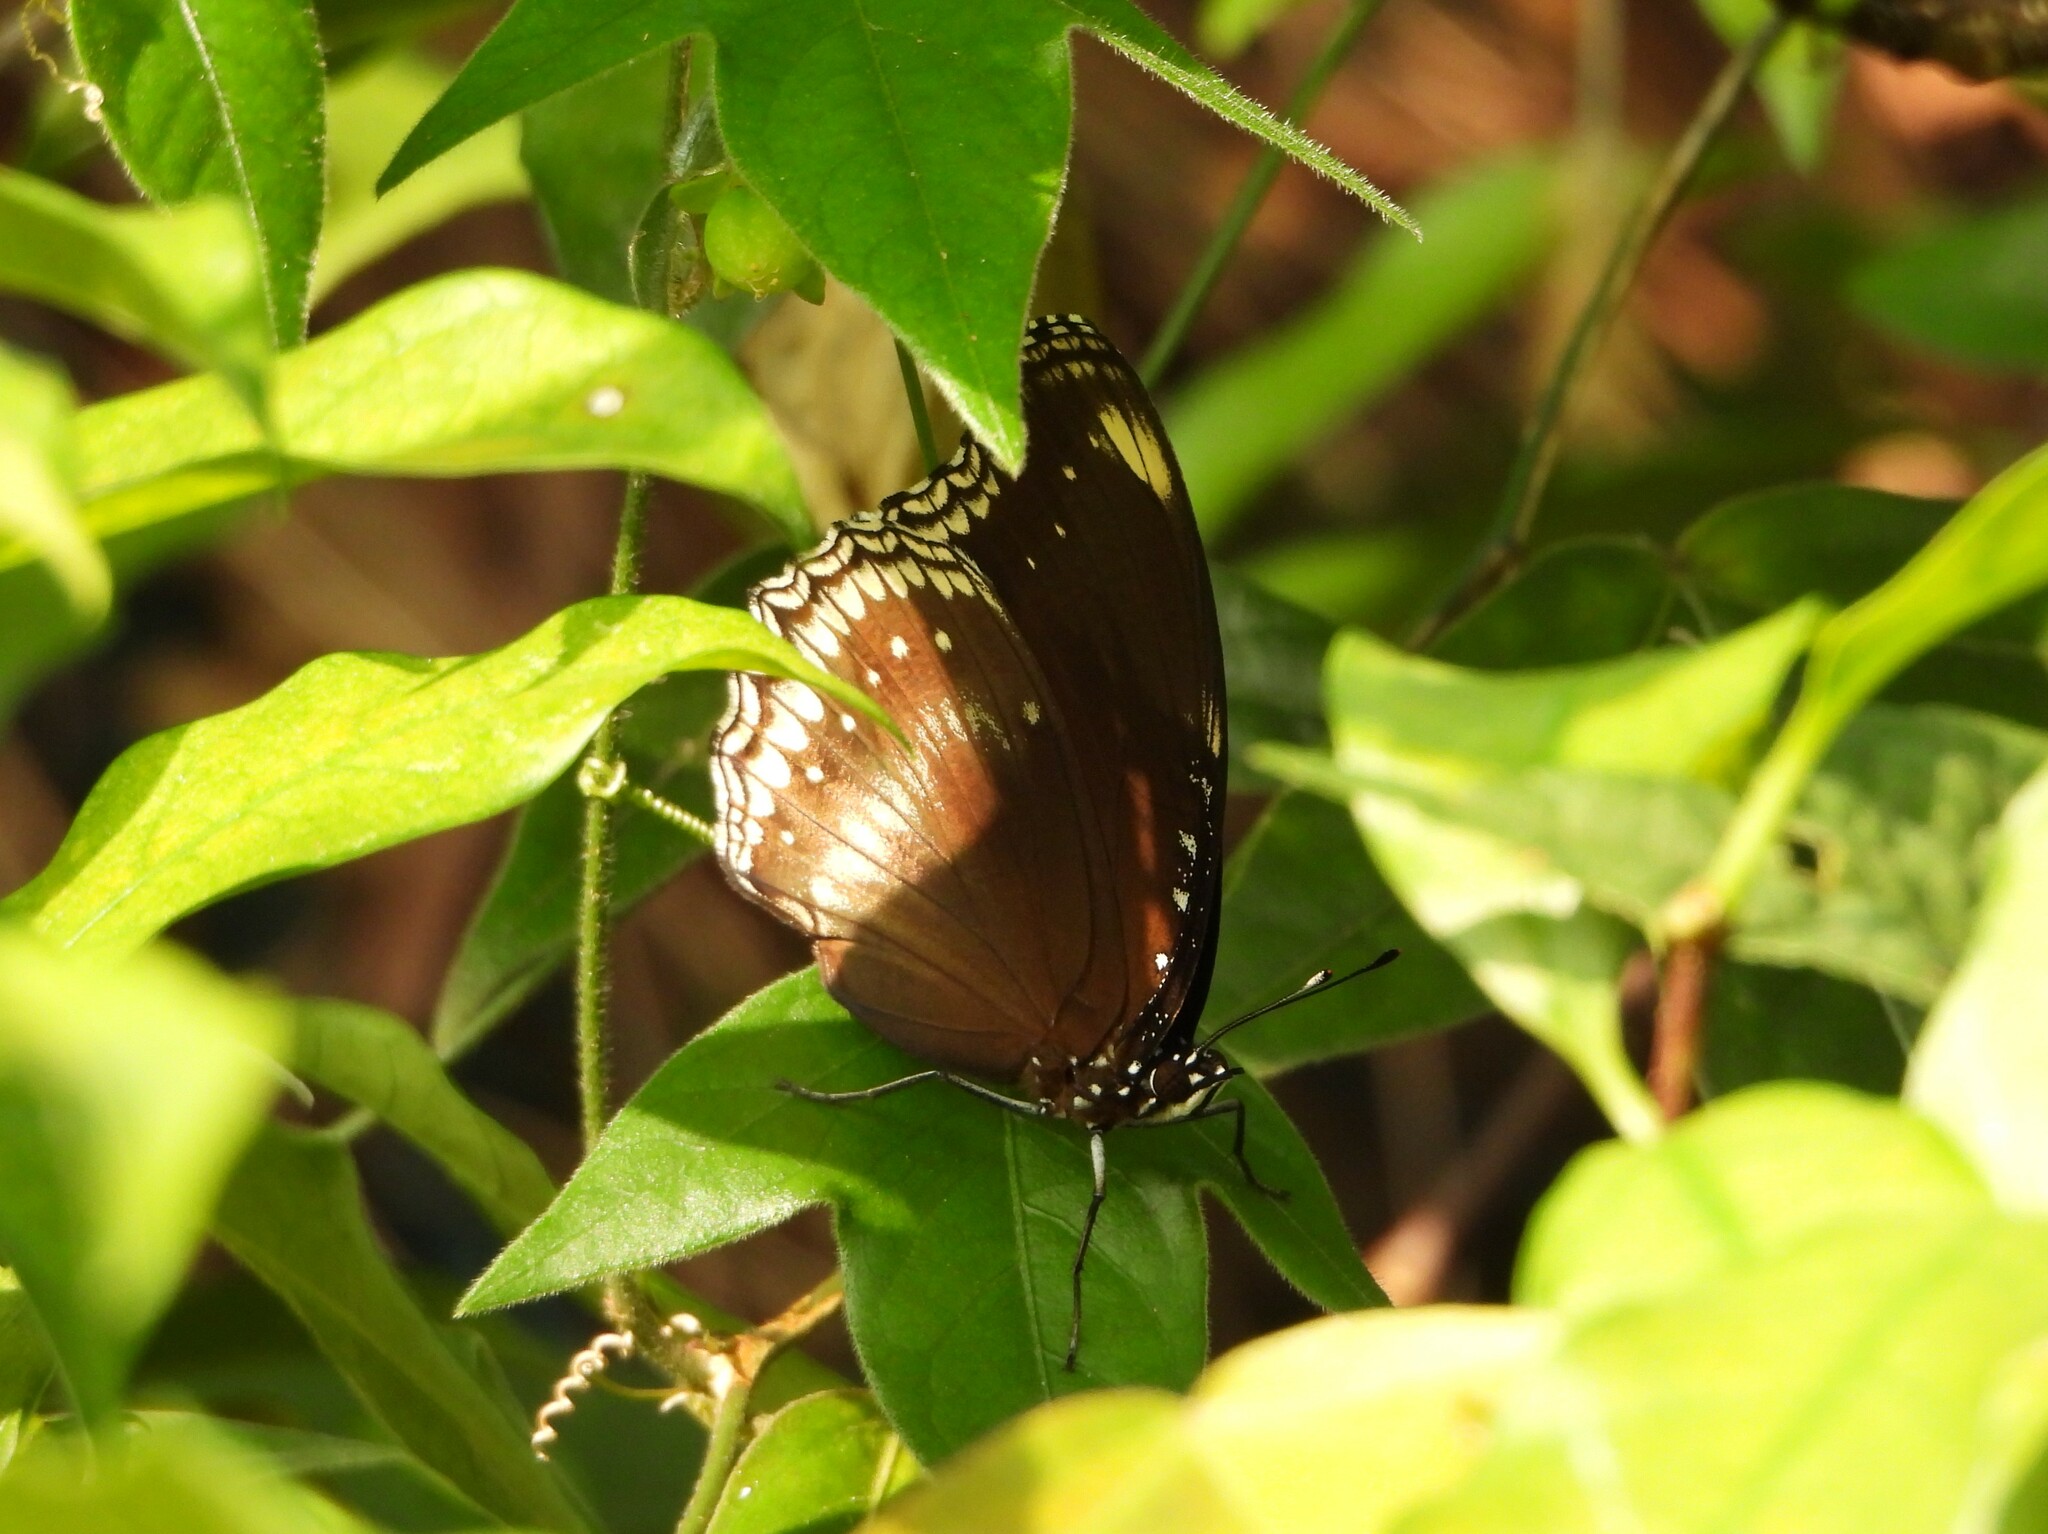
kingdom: Animalia
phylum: Arthropoda
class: Insecta
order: Lepidoptera
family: Nymphalidae
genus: Hypolimnas
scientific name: Hypolimnas bolina
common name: Great eggfly
